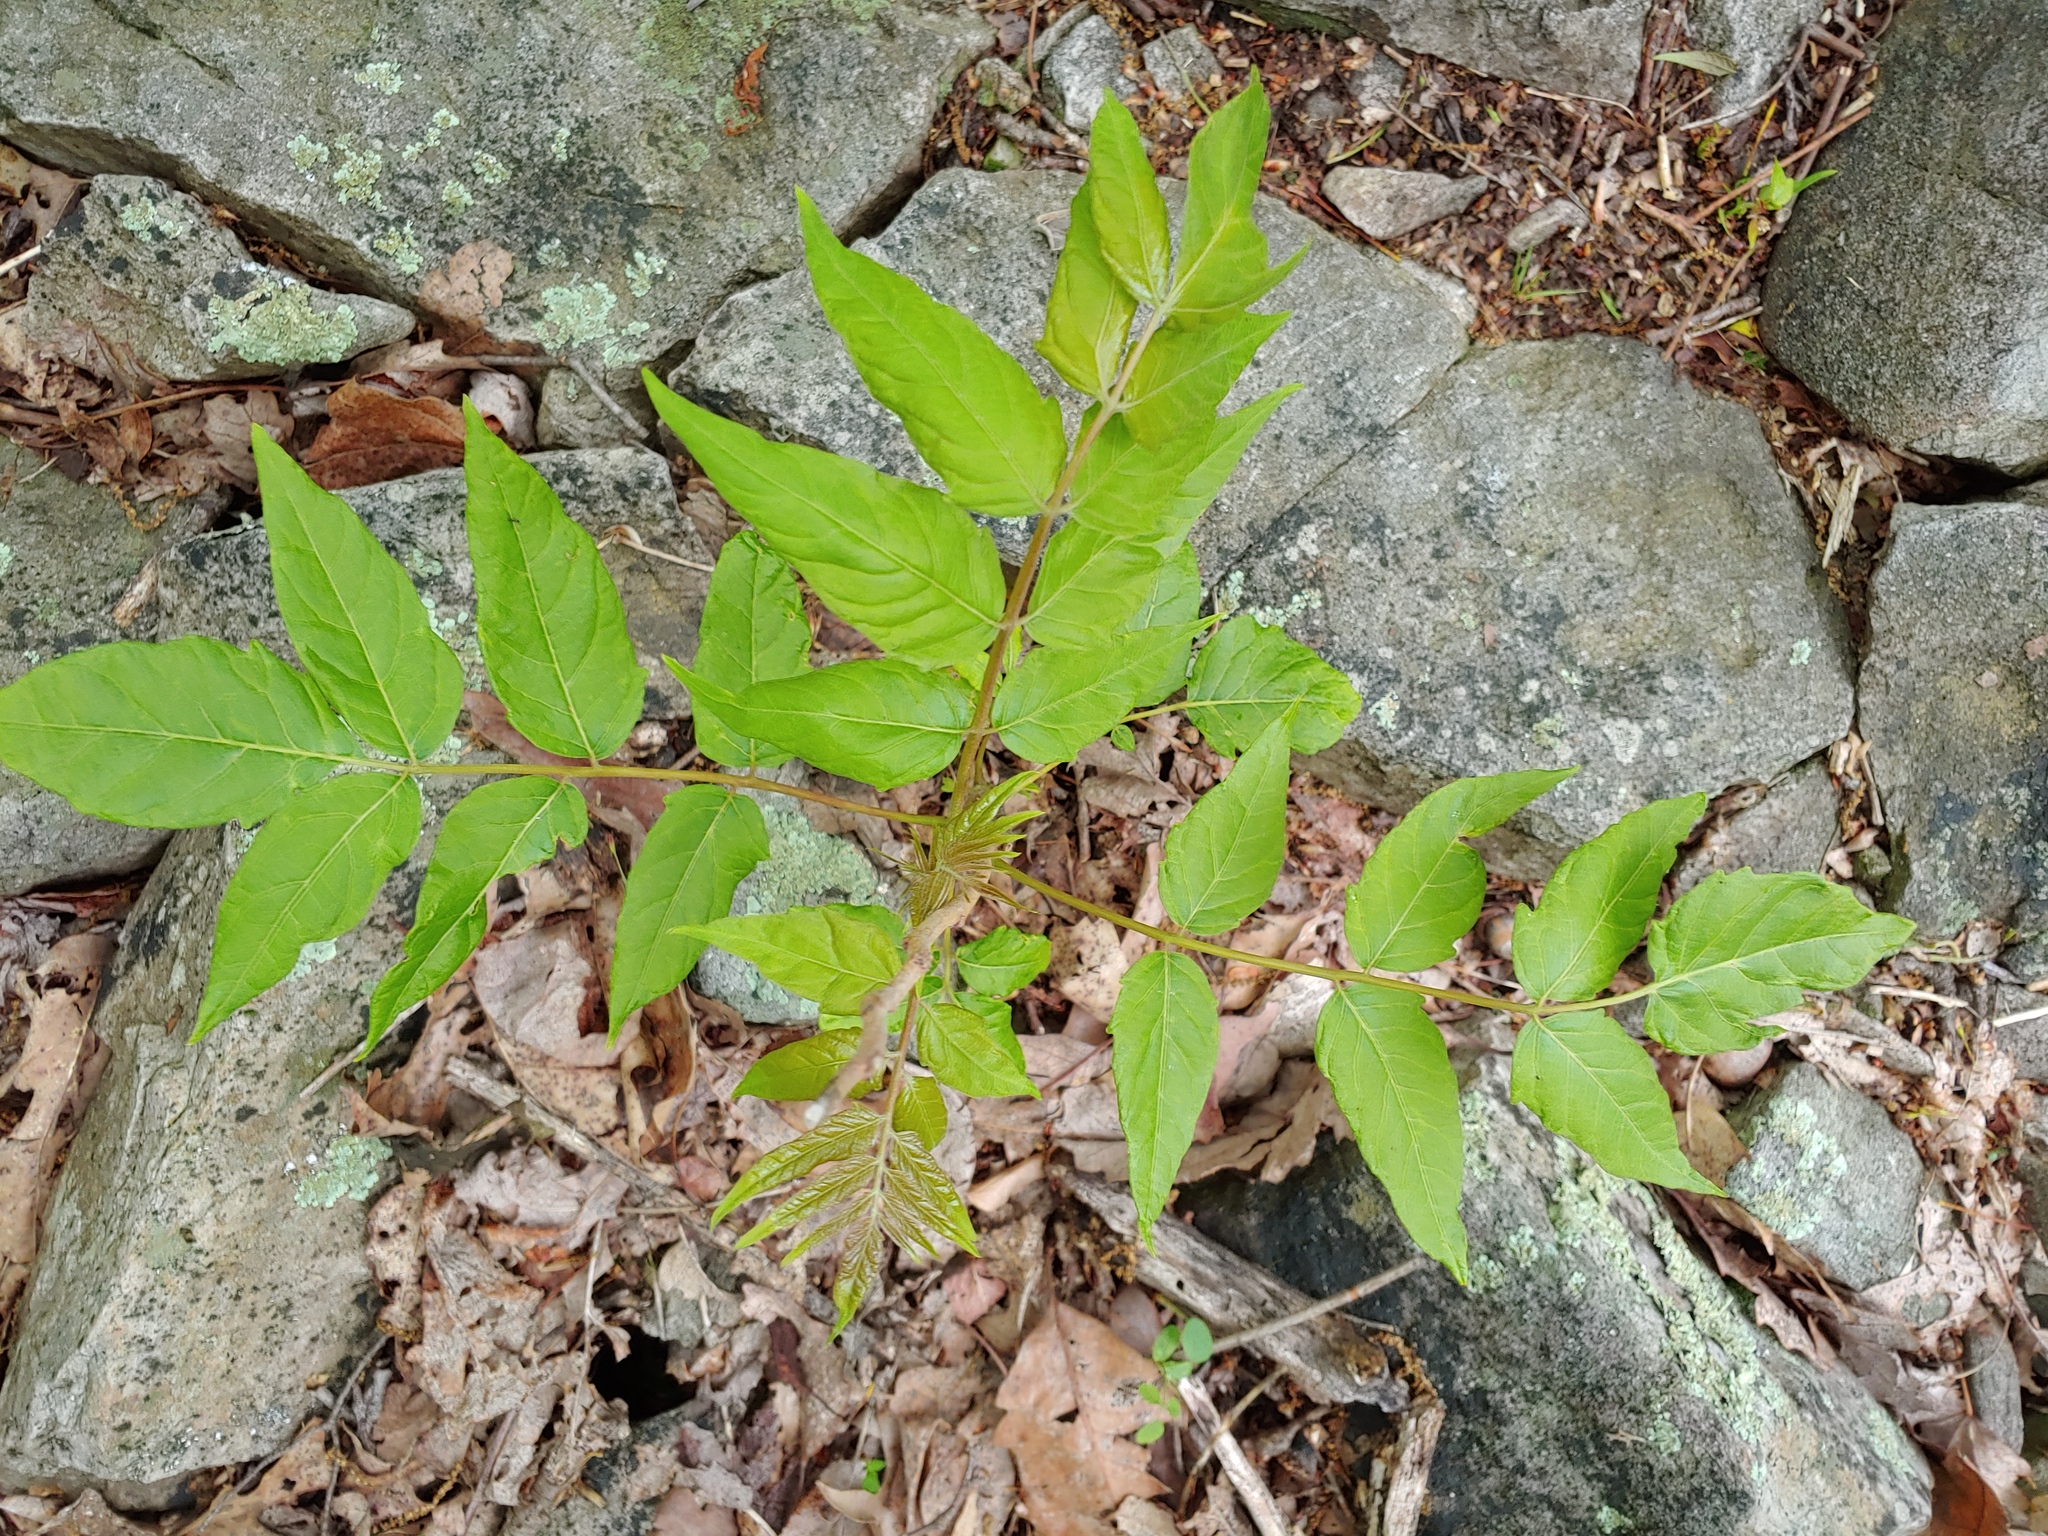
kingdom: Plantae
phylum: Tracheophyta
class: Magnoliopsida
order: Sapindales
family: Simaroubaceae
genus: Ailanthus
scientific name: Ailanthus altissima
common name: Tree-of-heaven
